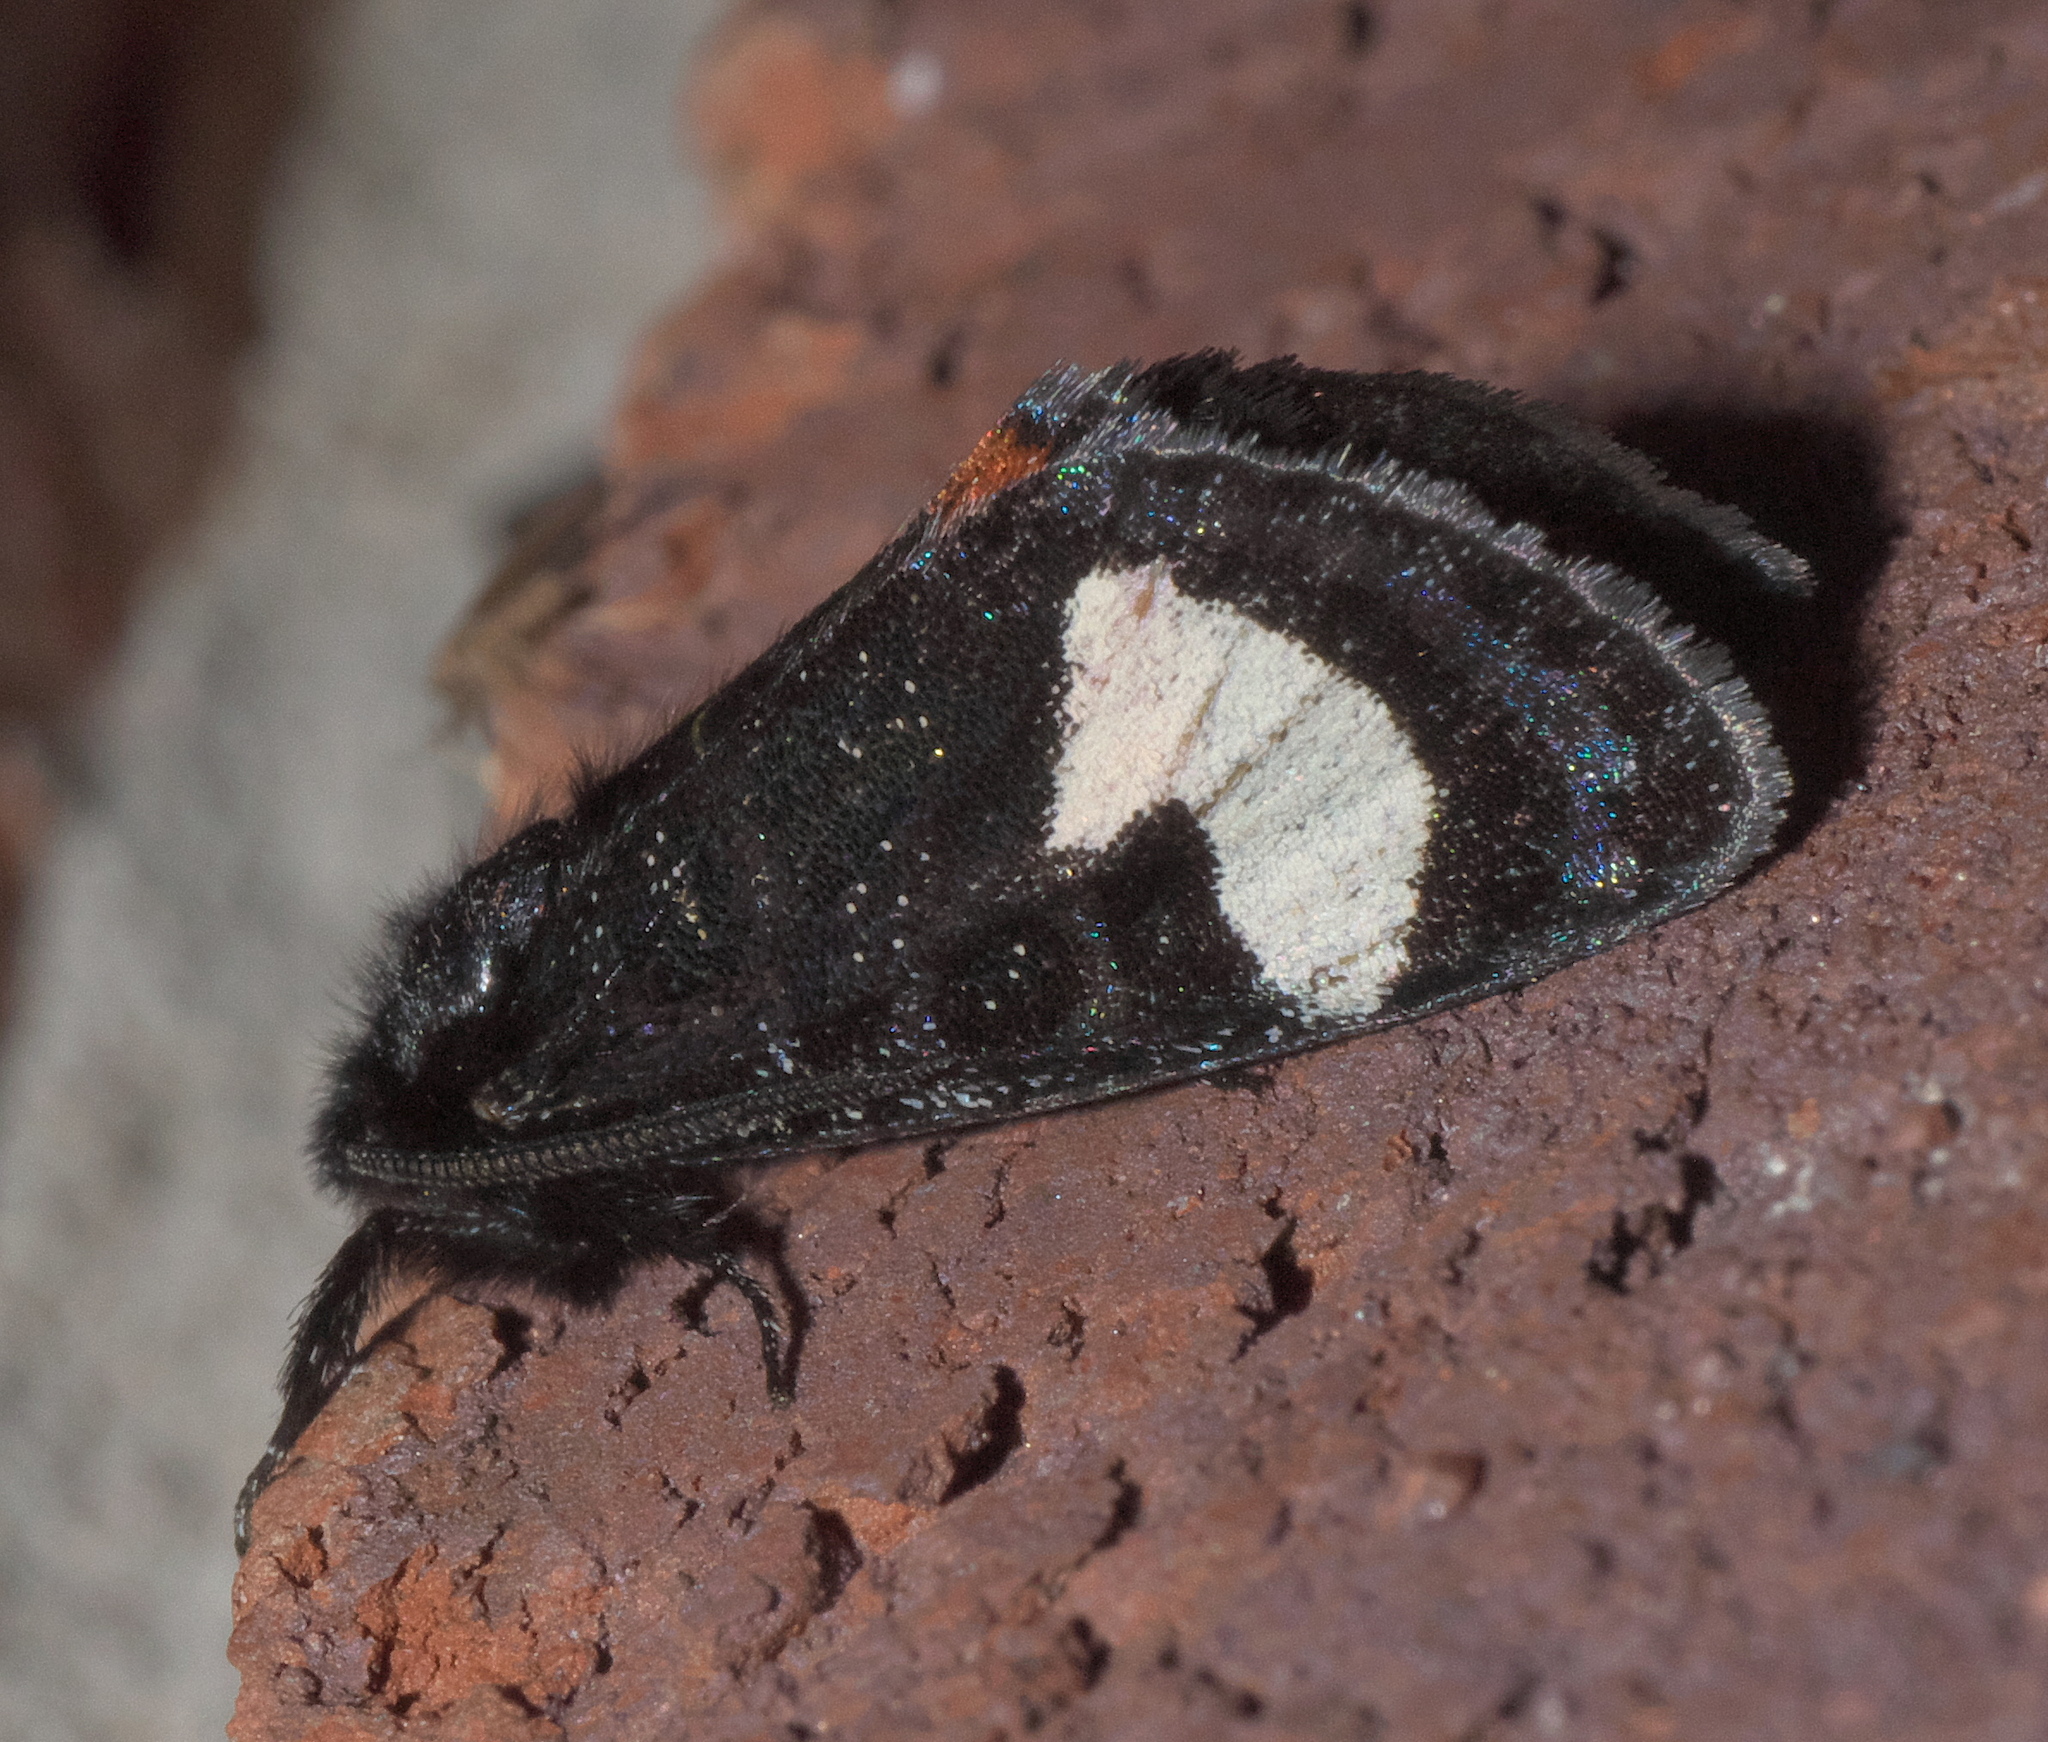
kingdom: Animalia
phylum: Arthropoda
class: Insecta
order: Lepidoptera
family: Noctuidae
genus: Psychomorpha
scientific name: Psychomorpha epimenis
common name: Grapevine epimenis moth
